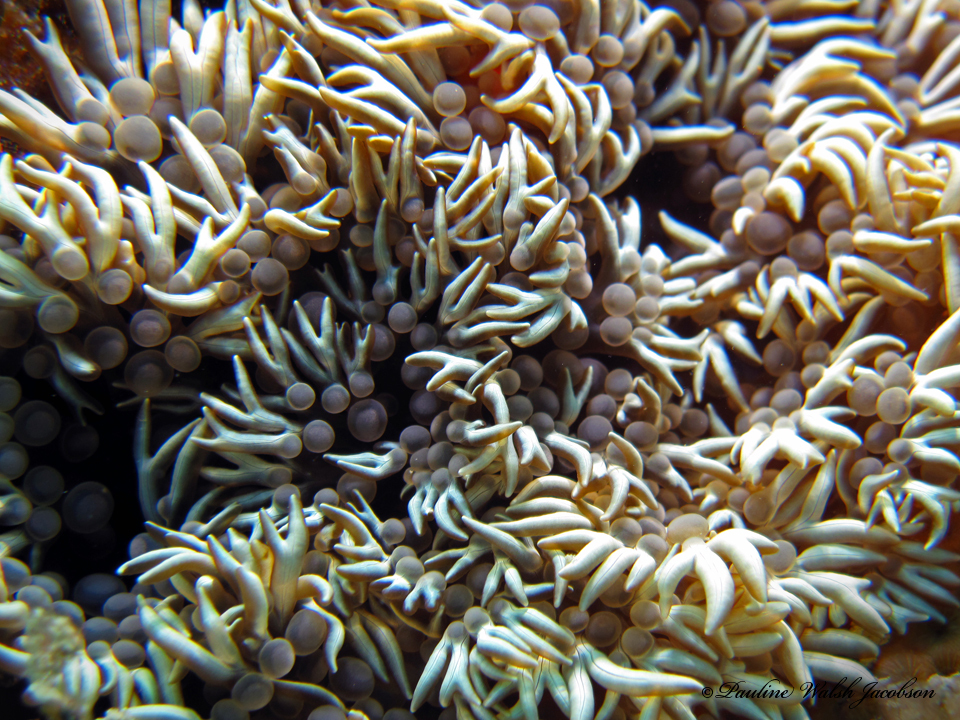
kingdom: Animalia
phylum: Cnidaria
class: Anthozoa
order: Actiniaria
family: Aliciidae
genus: Lebrunia
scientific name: Lebrunia neglecta
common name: Branching anemone
